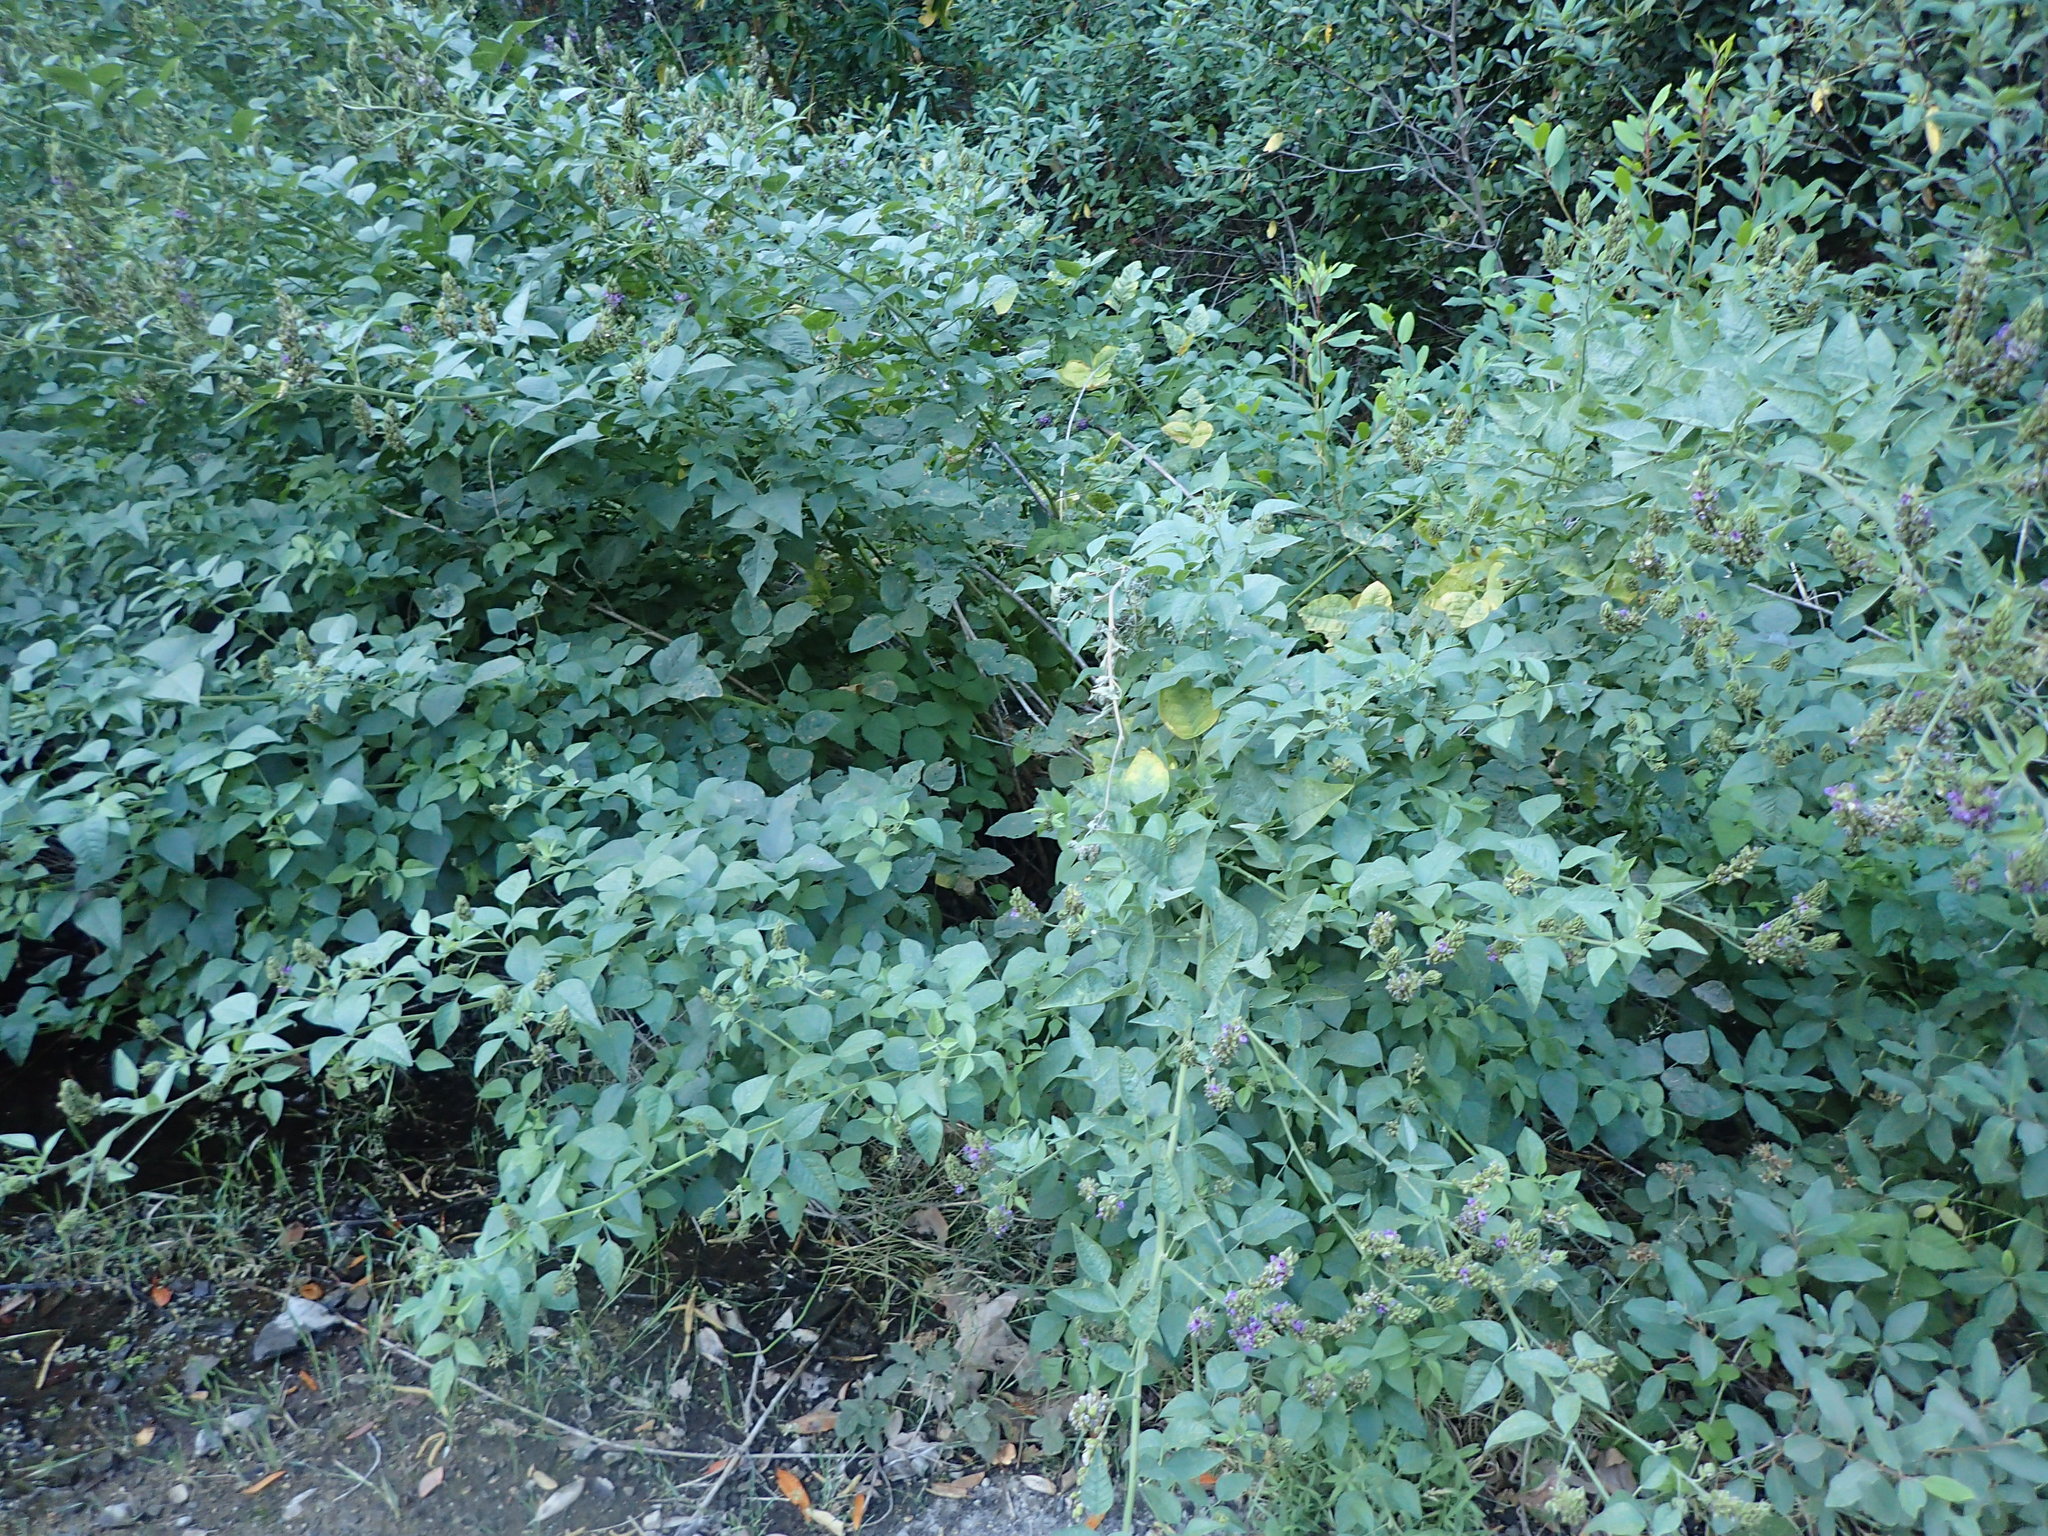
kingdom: Plantae
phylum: Tracheophyta
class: Magnoliopsida
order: Fabales
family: Fabaceae
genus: Hoita
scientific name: Hoita macrostachya
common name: Leatherroot
